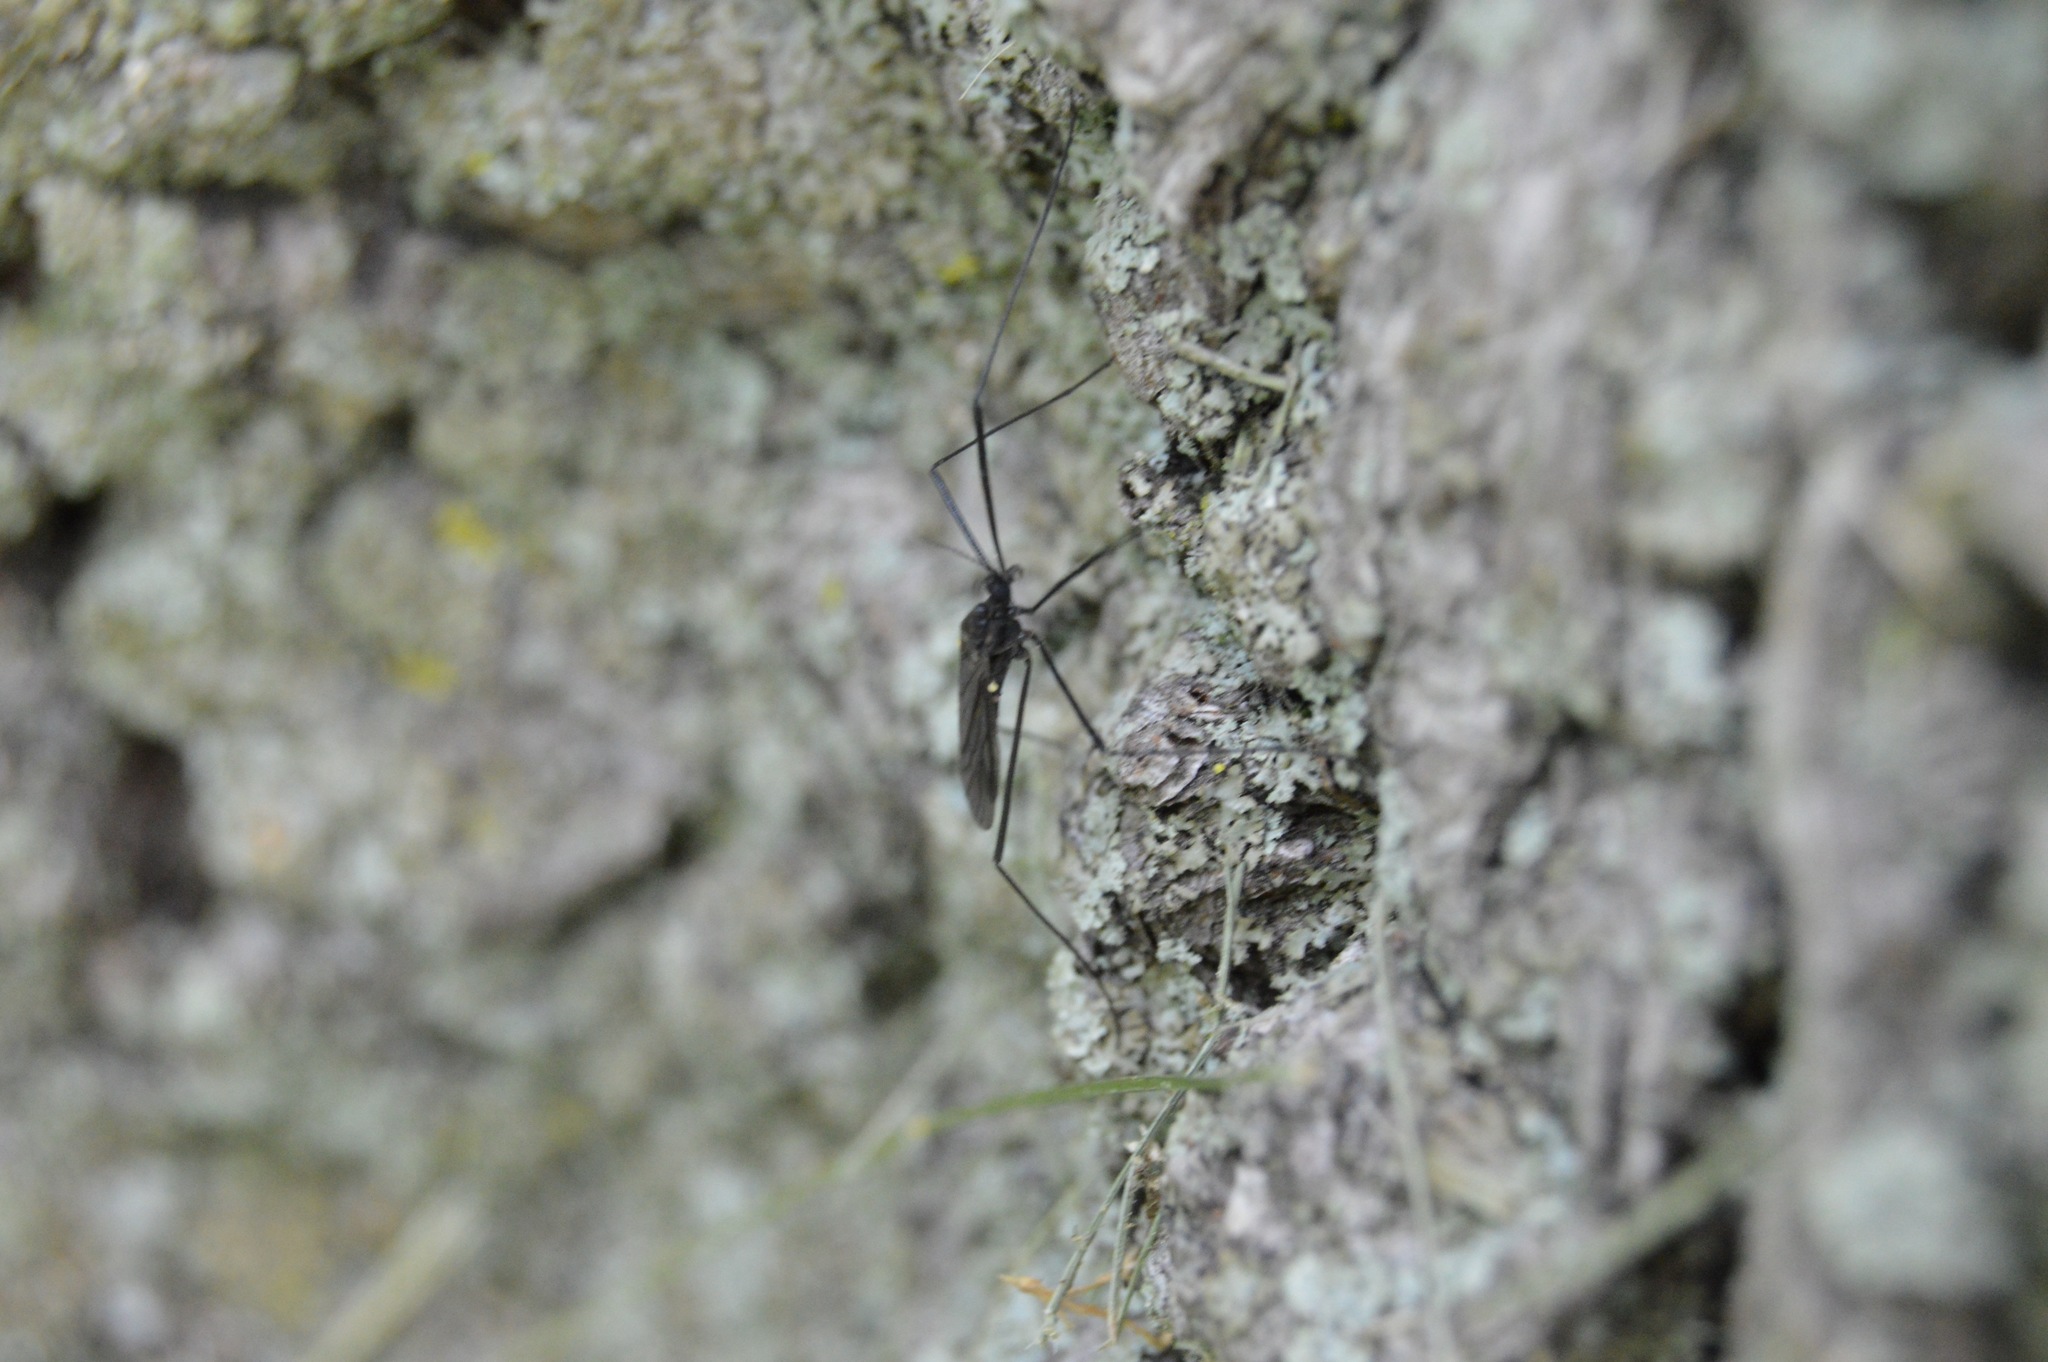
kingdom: Animalia
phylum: Arthropoda
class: Insecta
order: Diptera
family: Limoniidae
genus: Gnophomyia
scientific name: Gnophomyia tristissima
